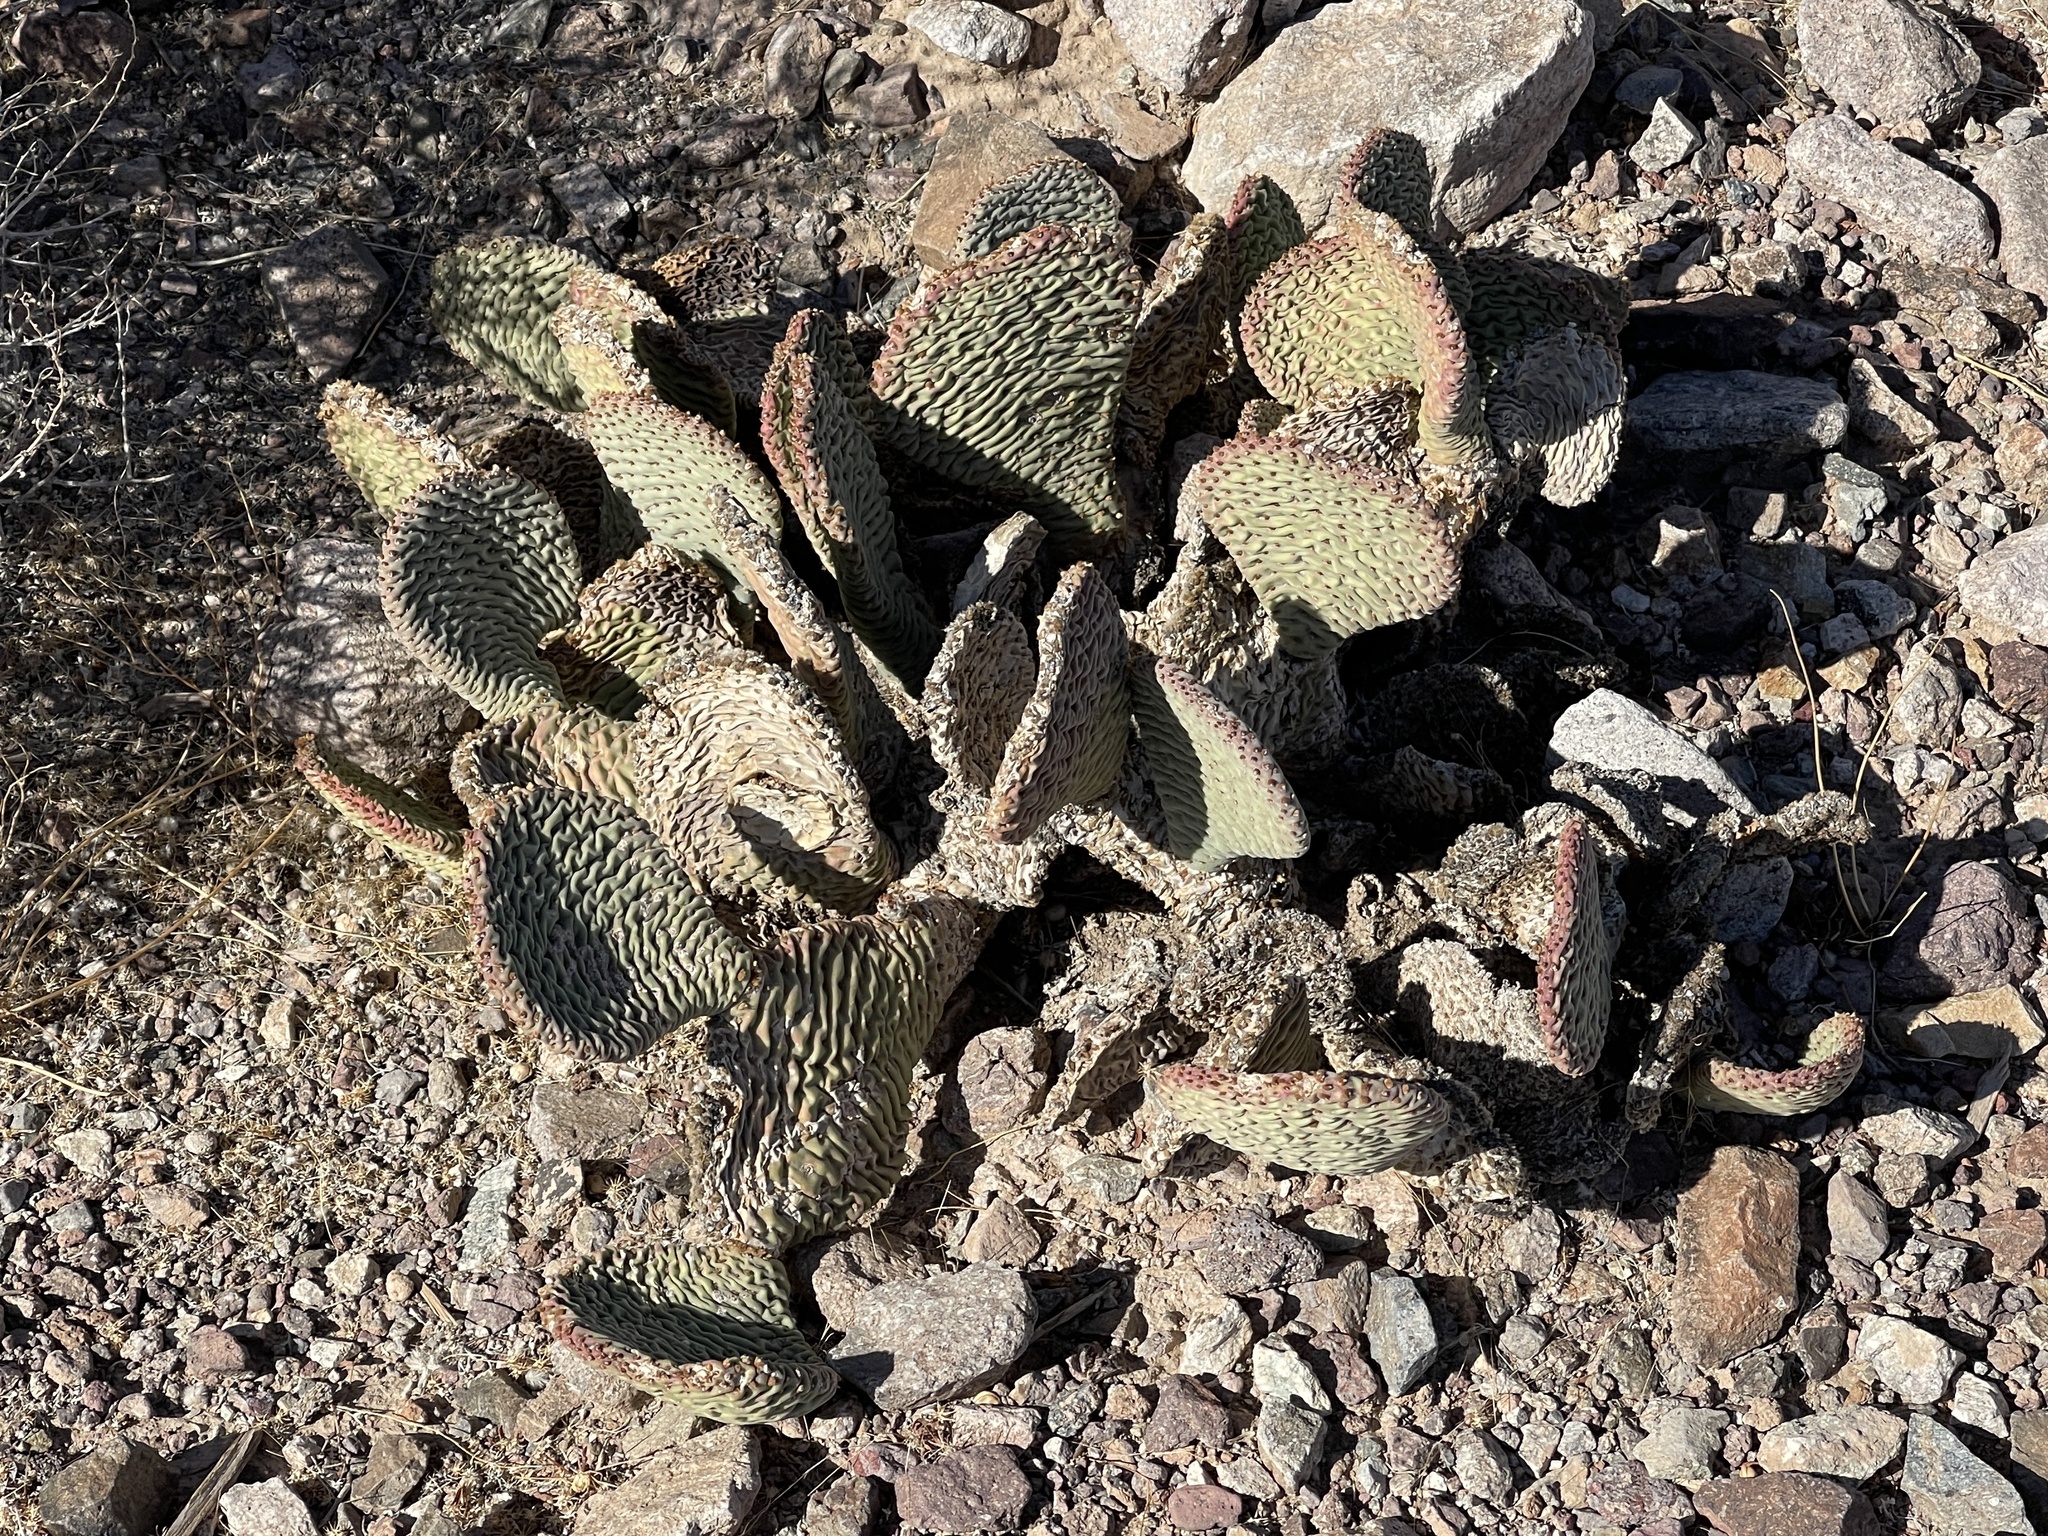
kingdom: Plantae
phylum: Tracheophyta
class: Magnoliopsida
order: Caryophyllales
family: Cactaceae
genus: Opuntia
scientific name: Opuntia basilaris
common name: Beavertail prickly-pear
